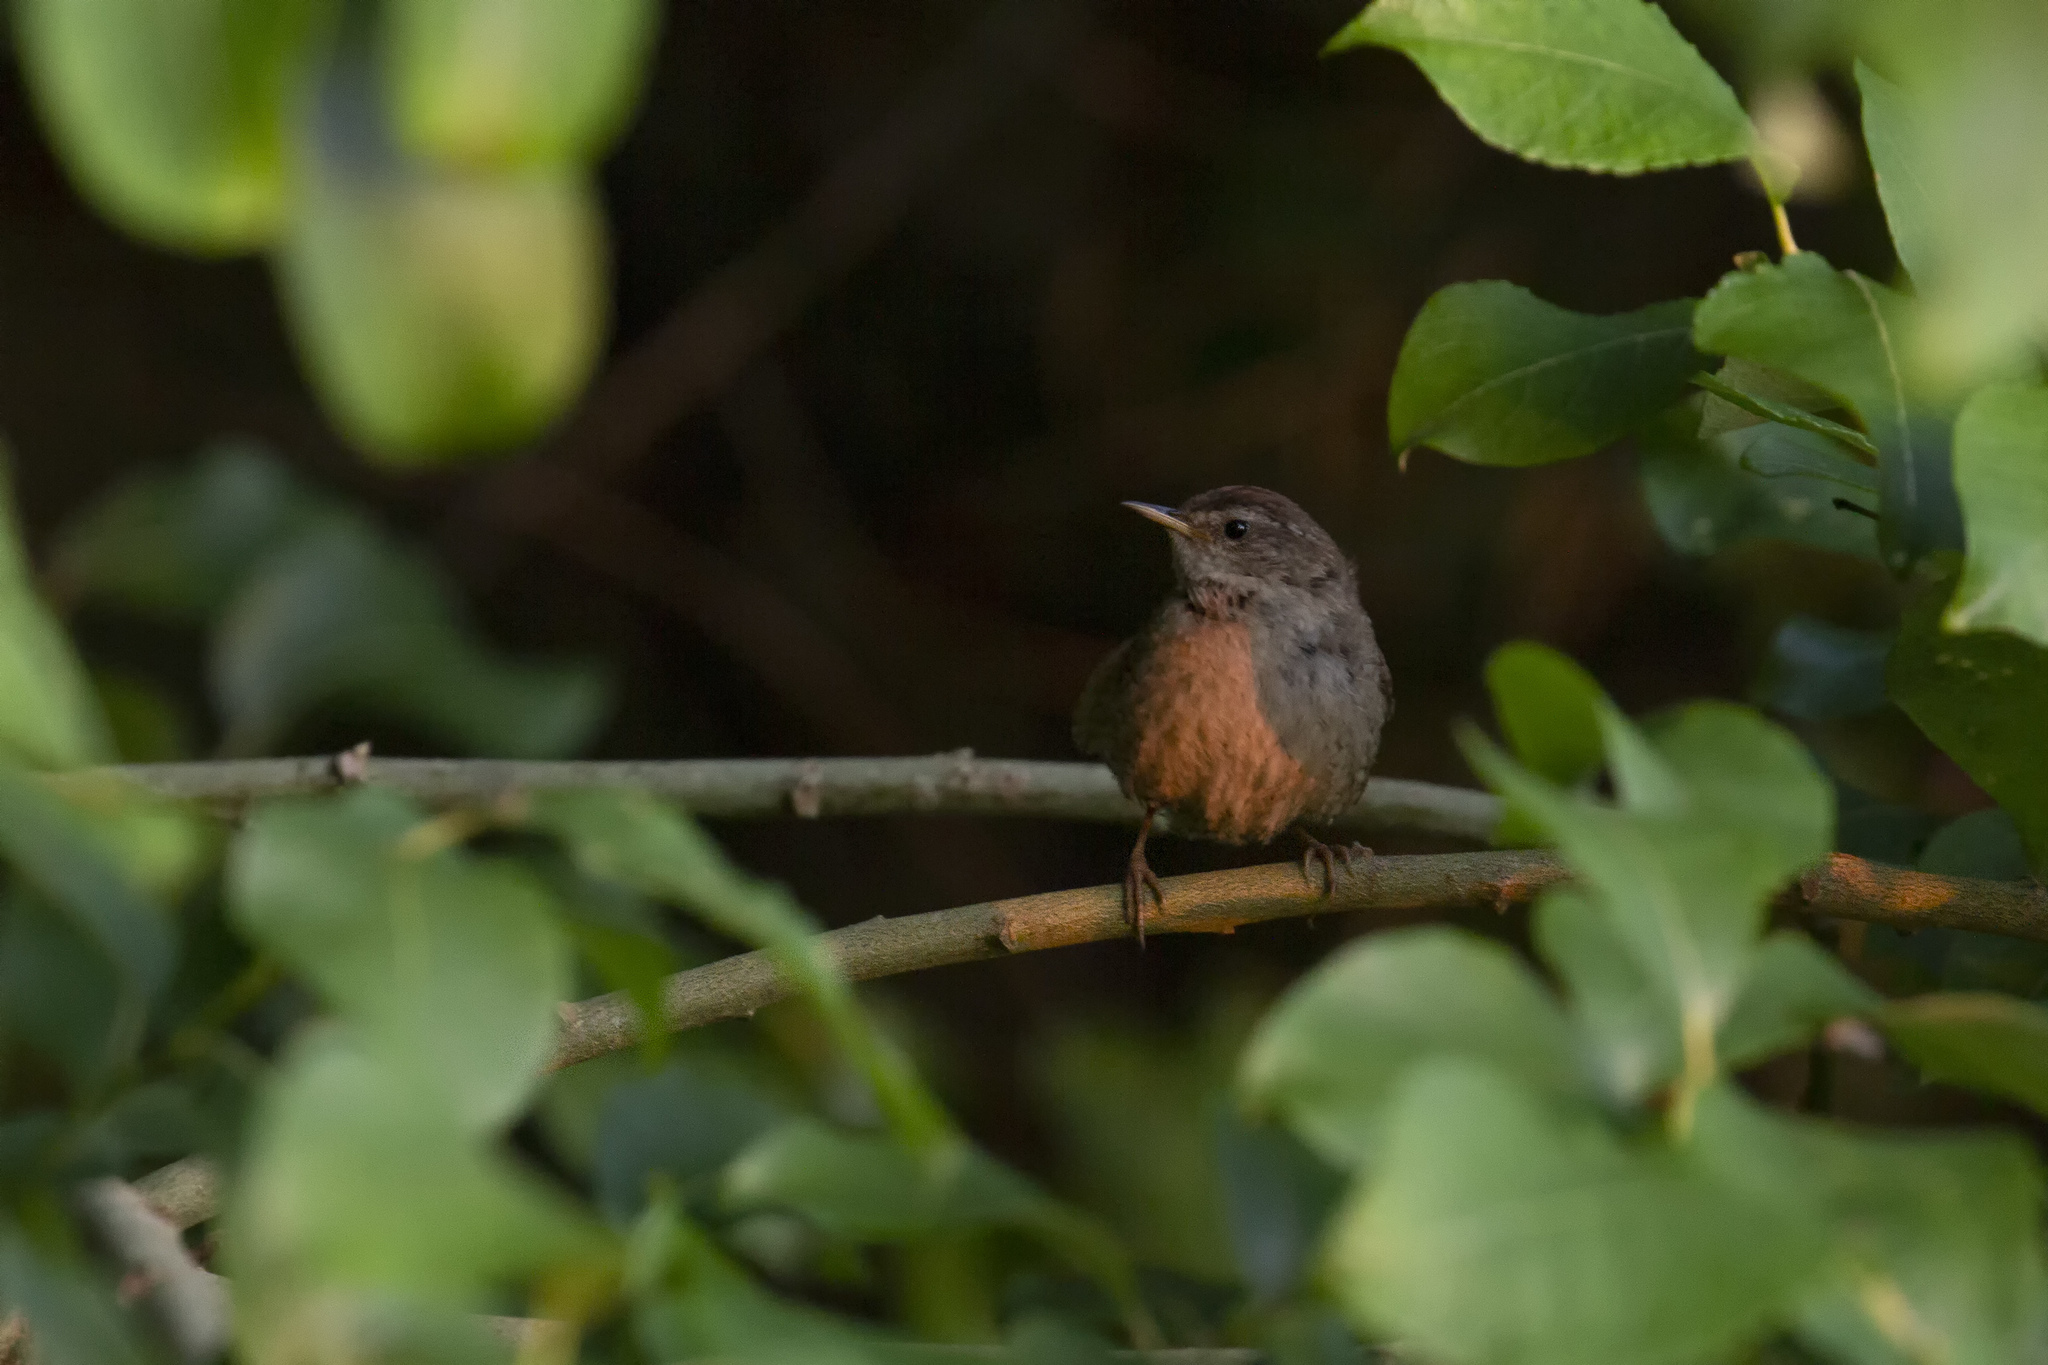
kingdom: Animalia
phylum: Chordata
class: Aves
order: Passeriformes
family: Troglodytidae
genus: Troglodytes
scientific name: Troglodytes troglodytes
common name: Eurasian wren
